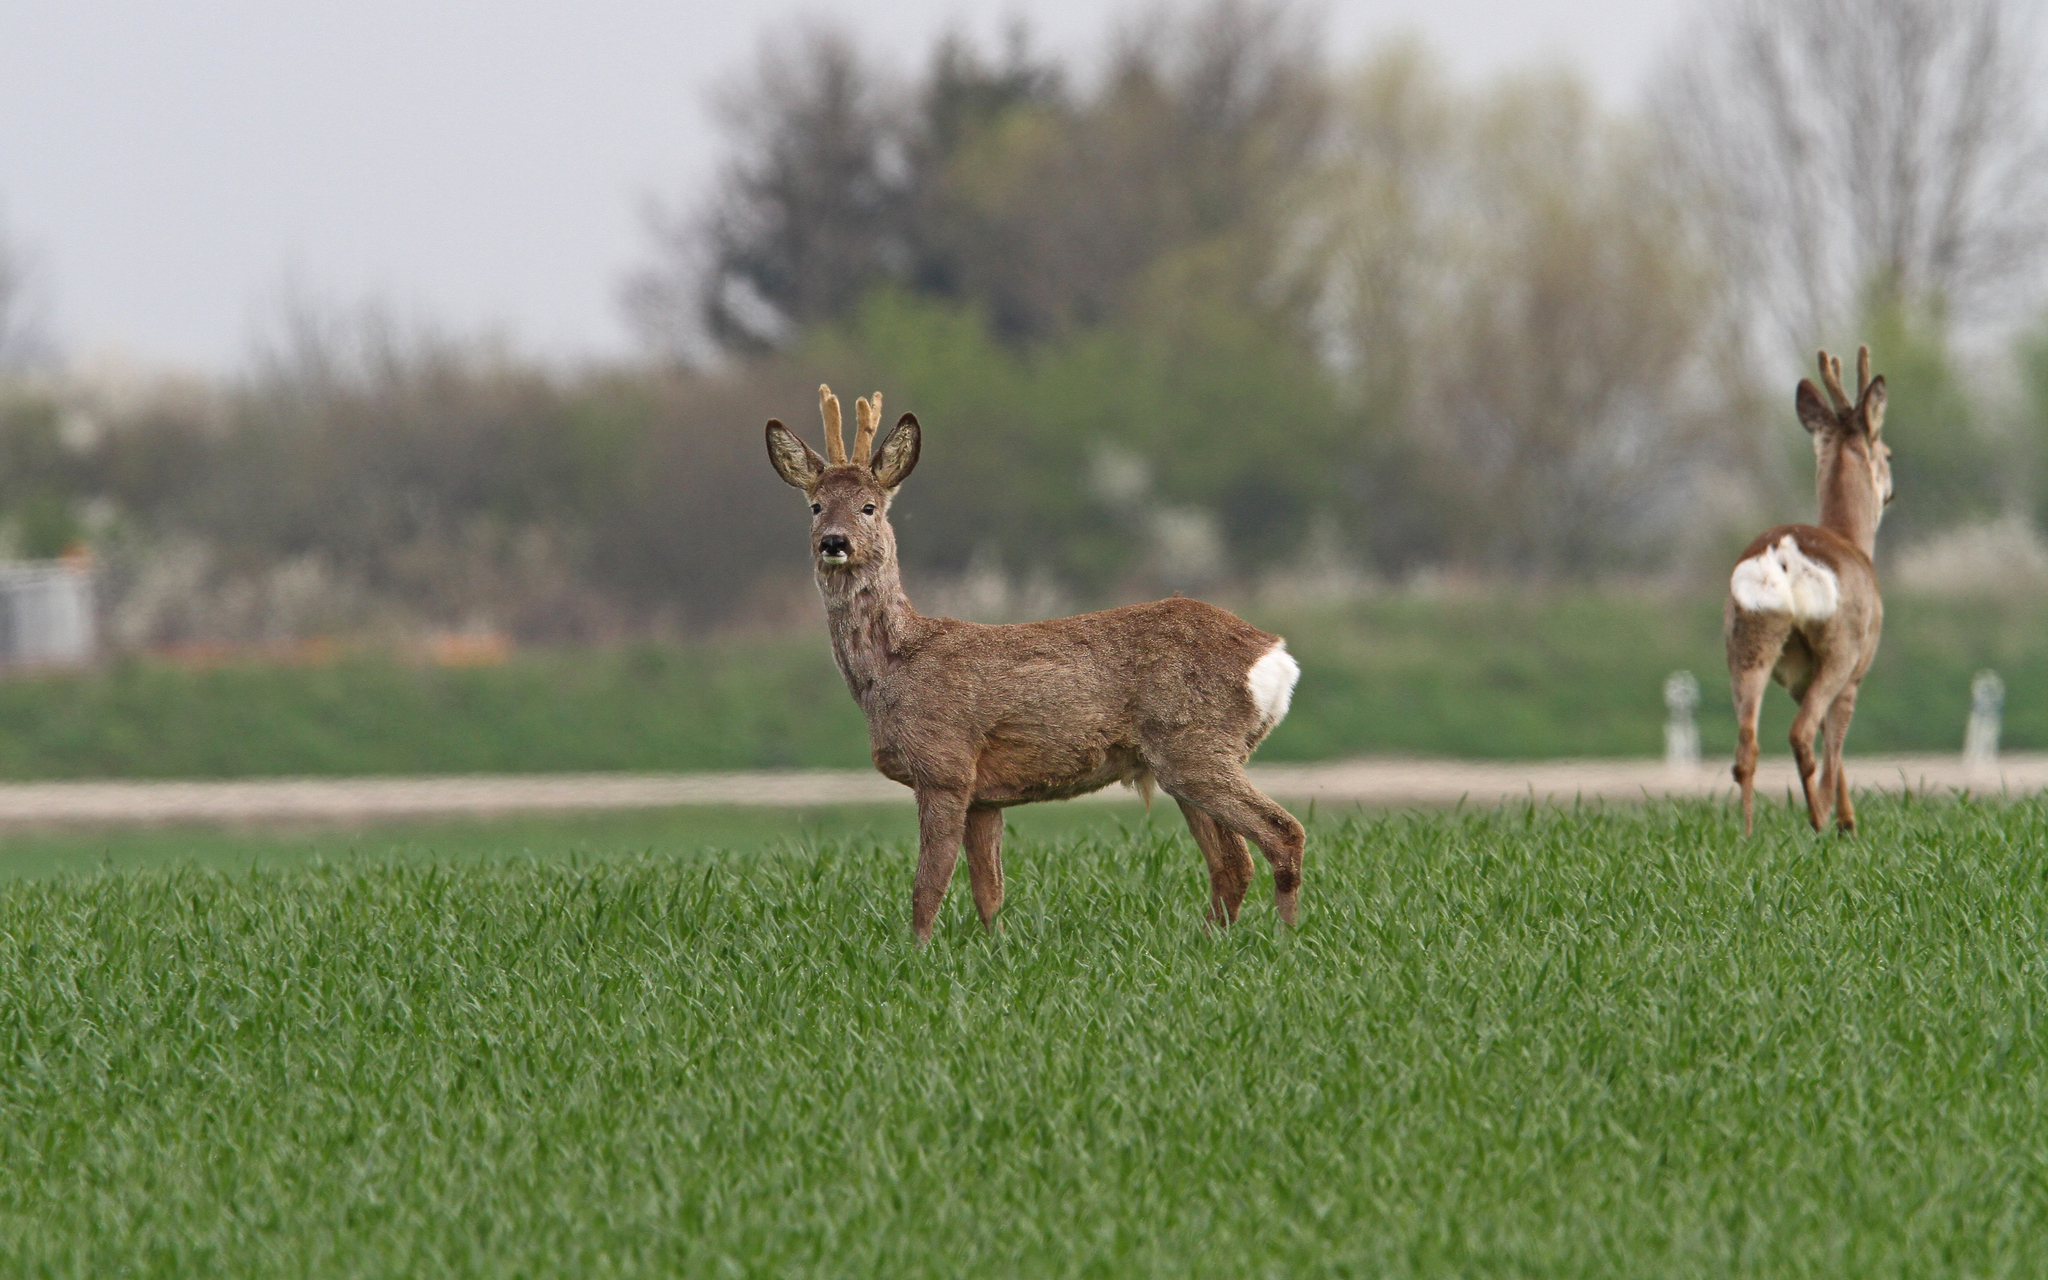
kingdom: Animalia
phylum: Chordata
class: Mammalia
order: Artiodactyla
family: Cervidae
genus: Capreolus
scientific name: Capreolus capreolus
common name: Western roe deer
